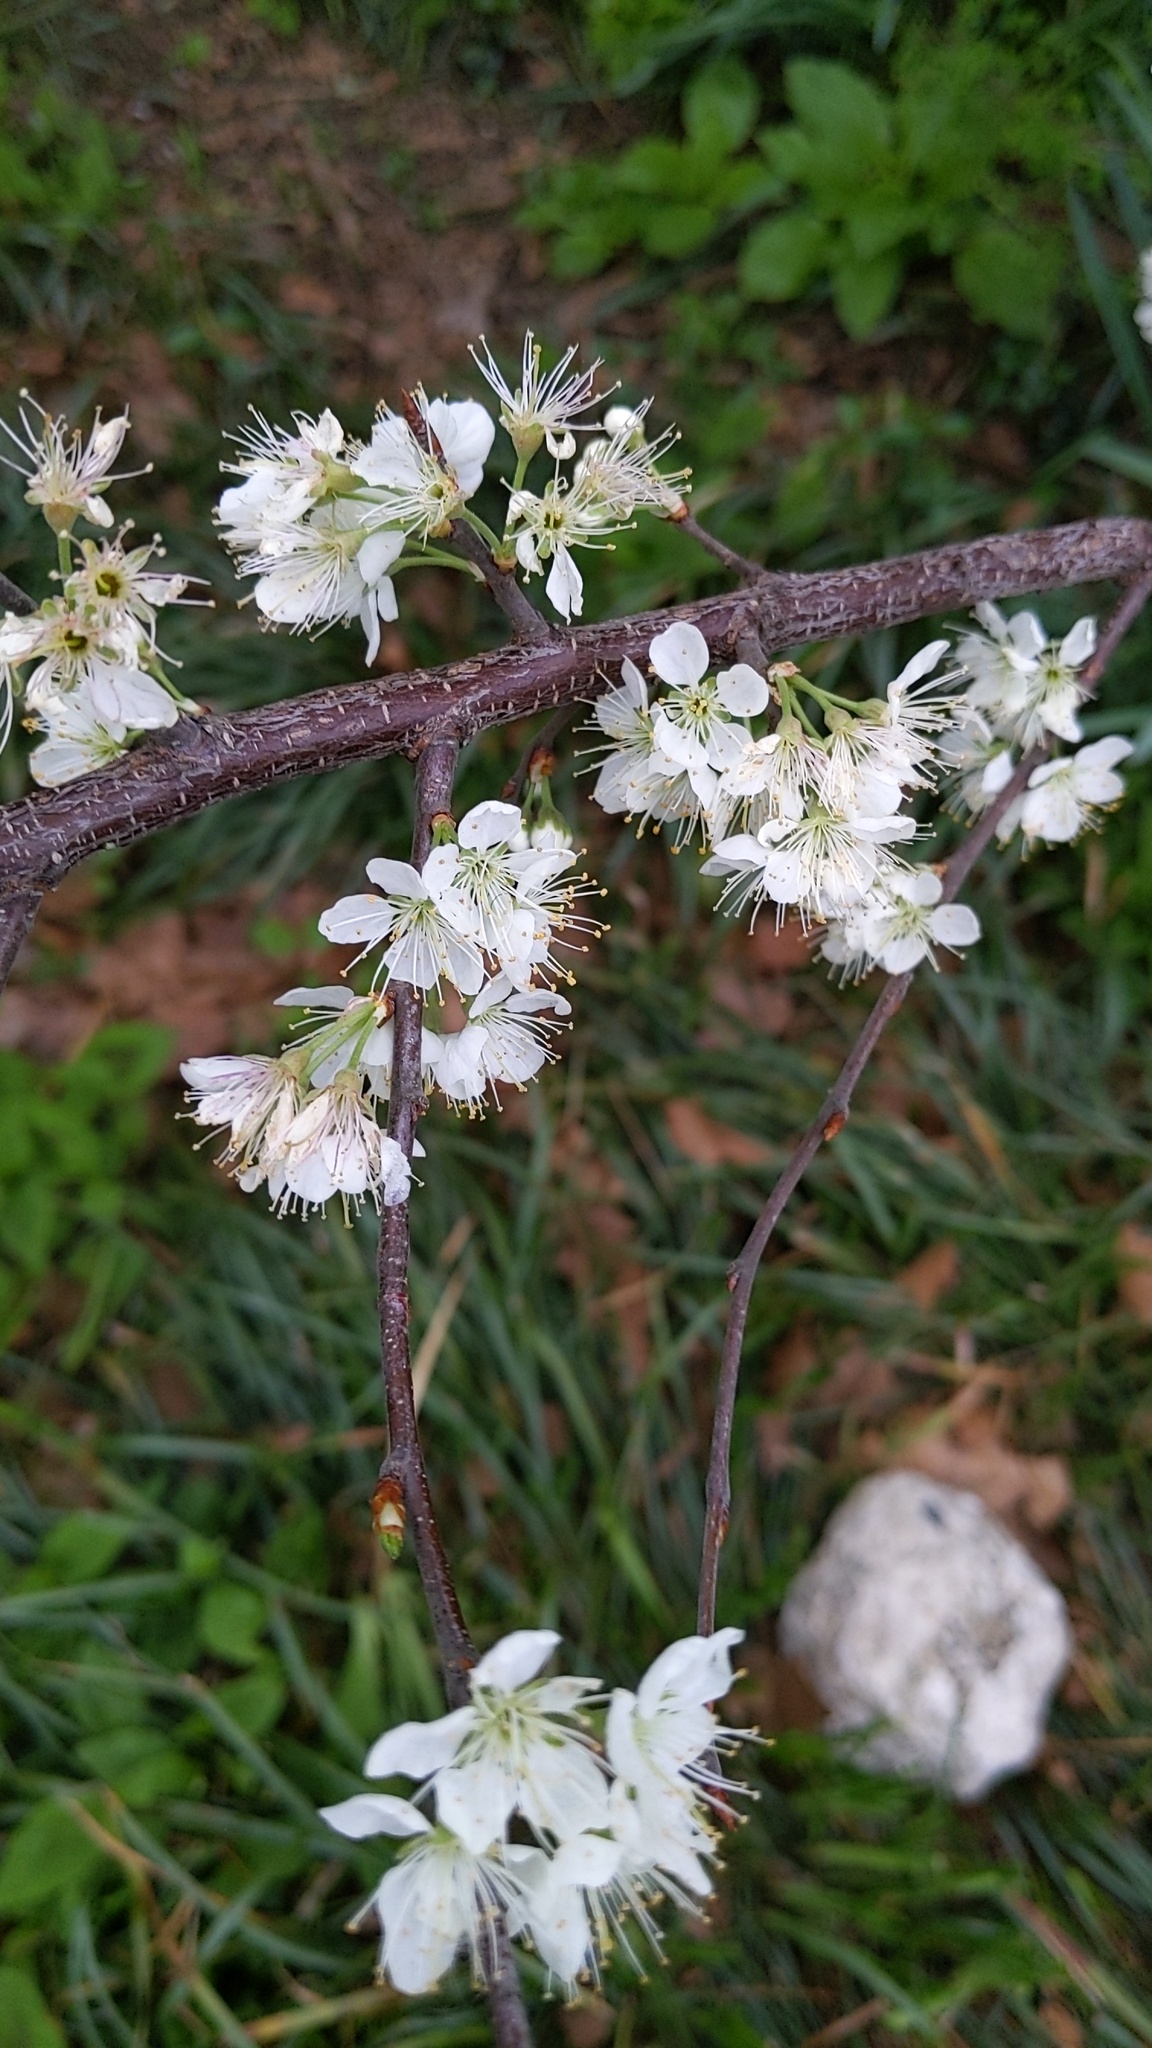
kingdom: Plantae
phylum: Tracheophyta
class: Magnoliopsida
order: Rosales
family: Rosaceae
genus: Prunus
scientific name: Prunus maritima
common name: Beach plum
